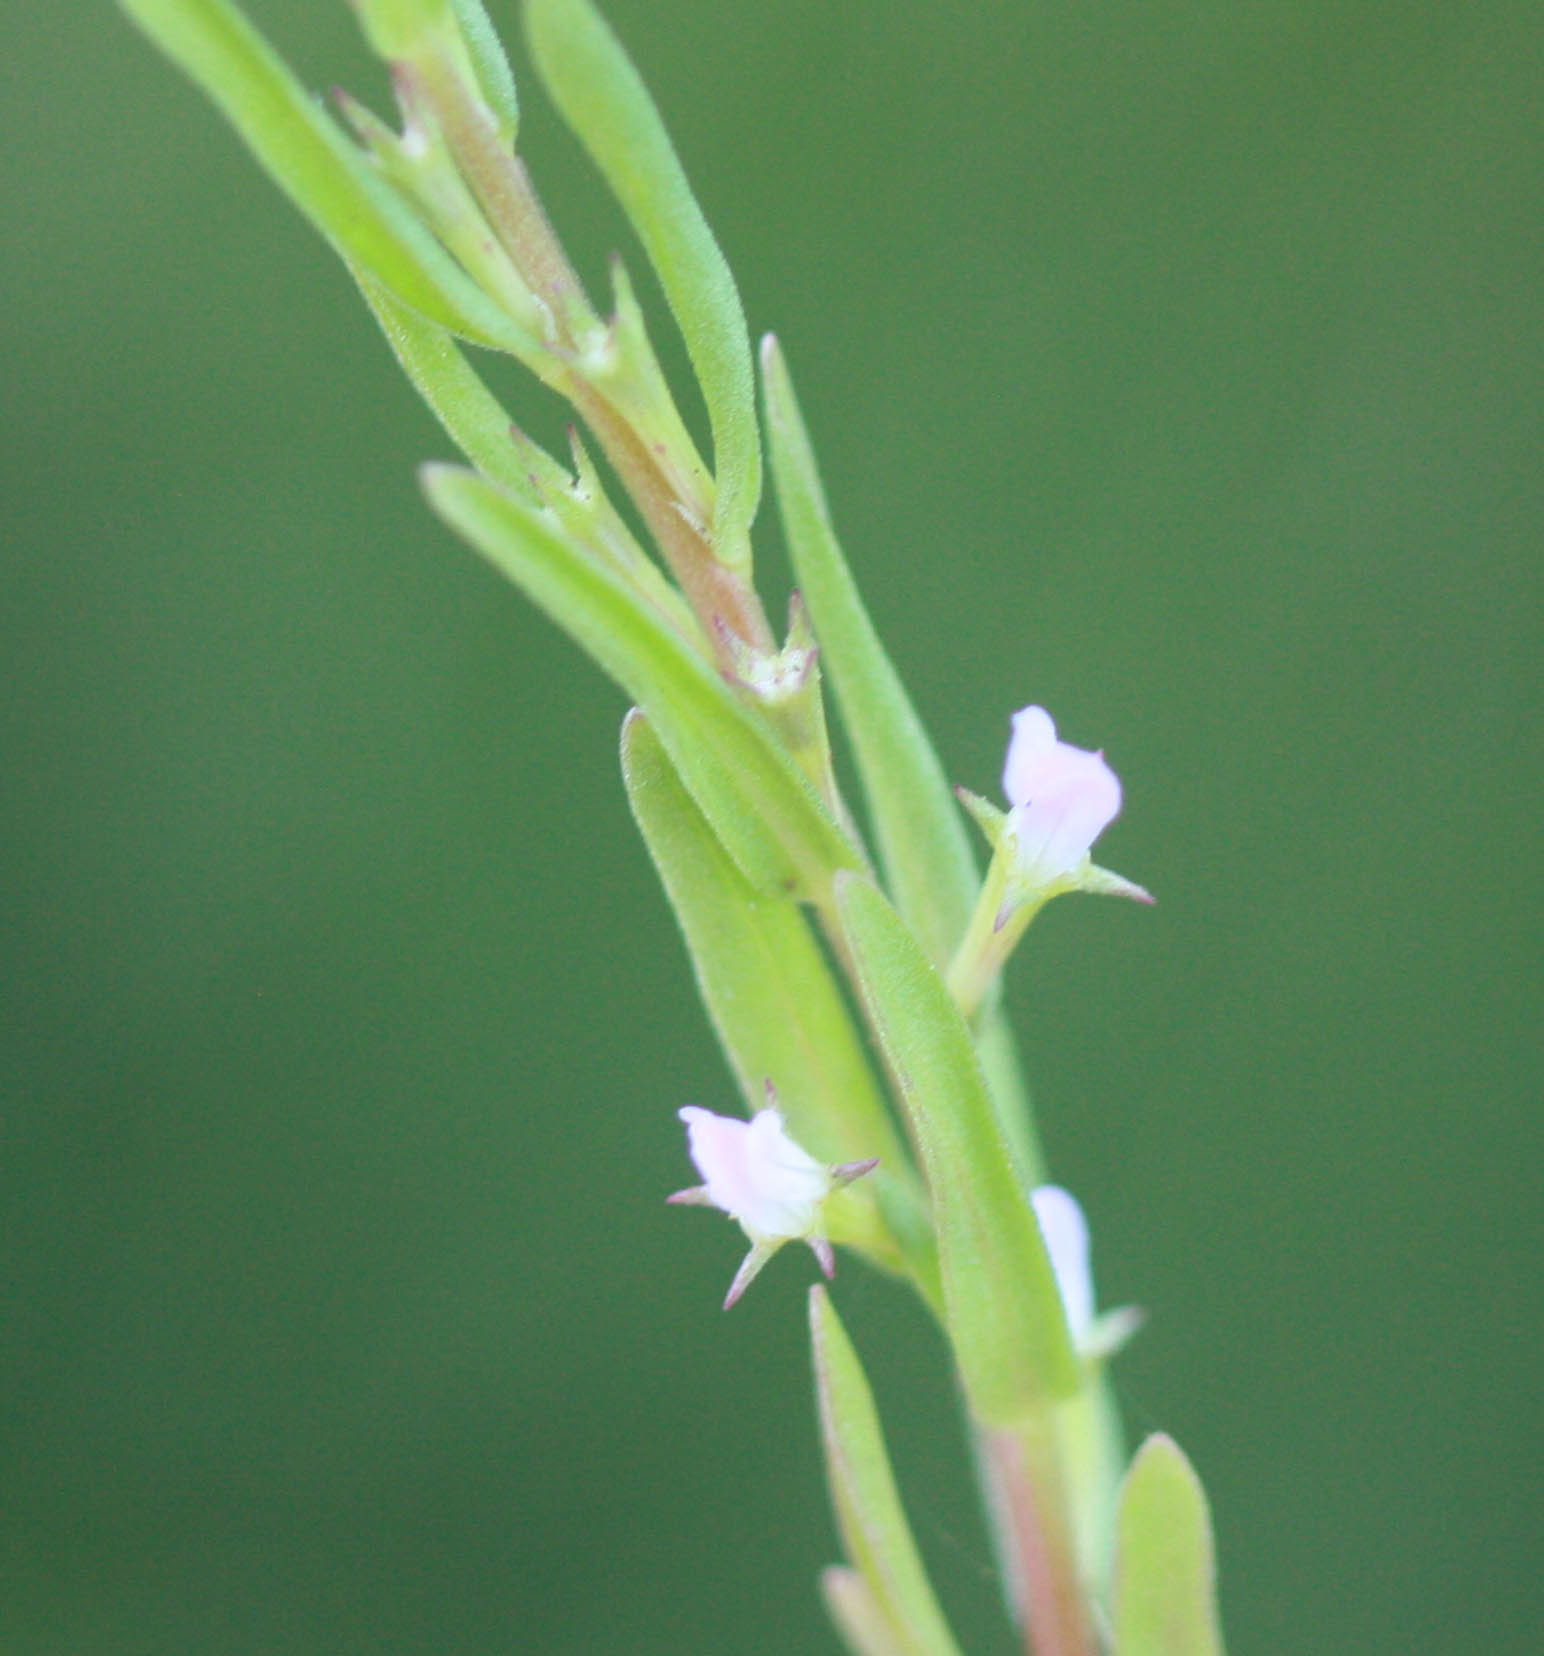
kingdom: Plantae
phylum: Tracheophyta
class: Magnoliopsida
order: Myrtales
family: Lythraceae
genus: Lythrum
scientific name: Lythrum hyssopifolia
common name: Grass-poly
